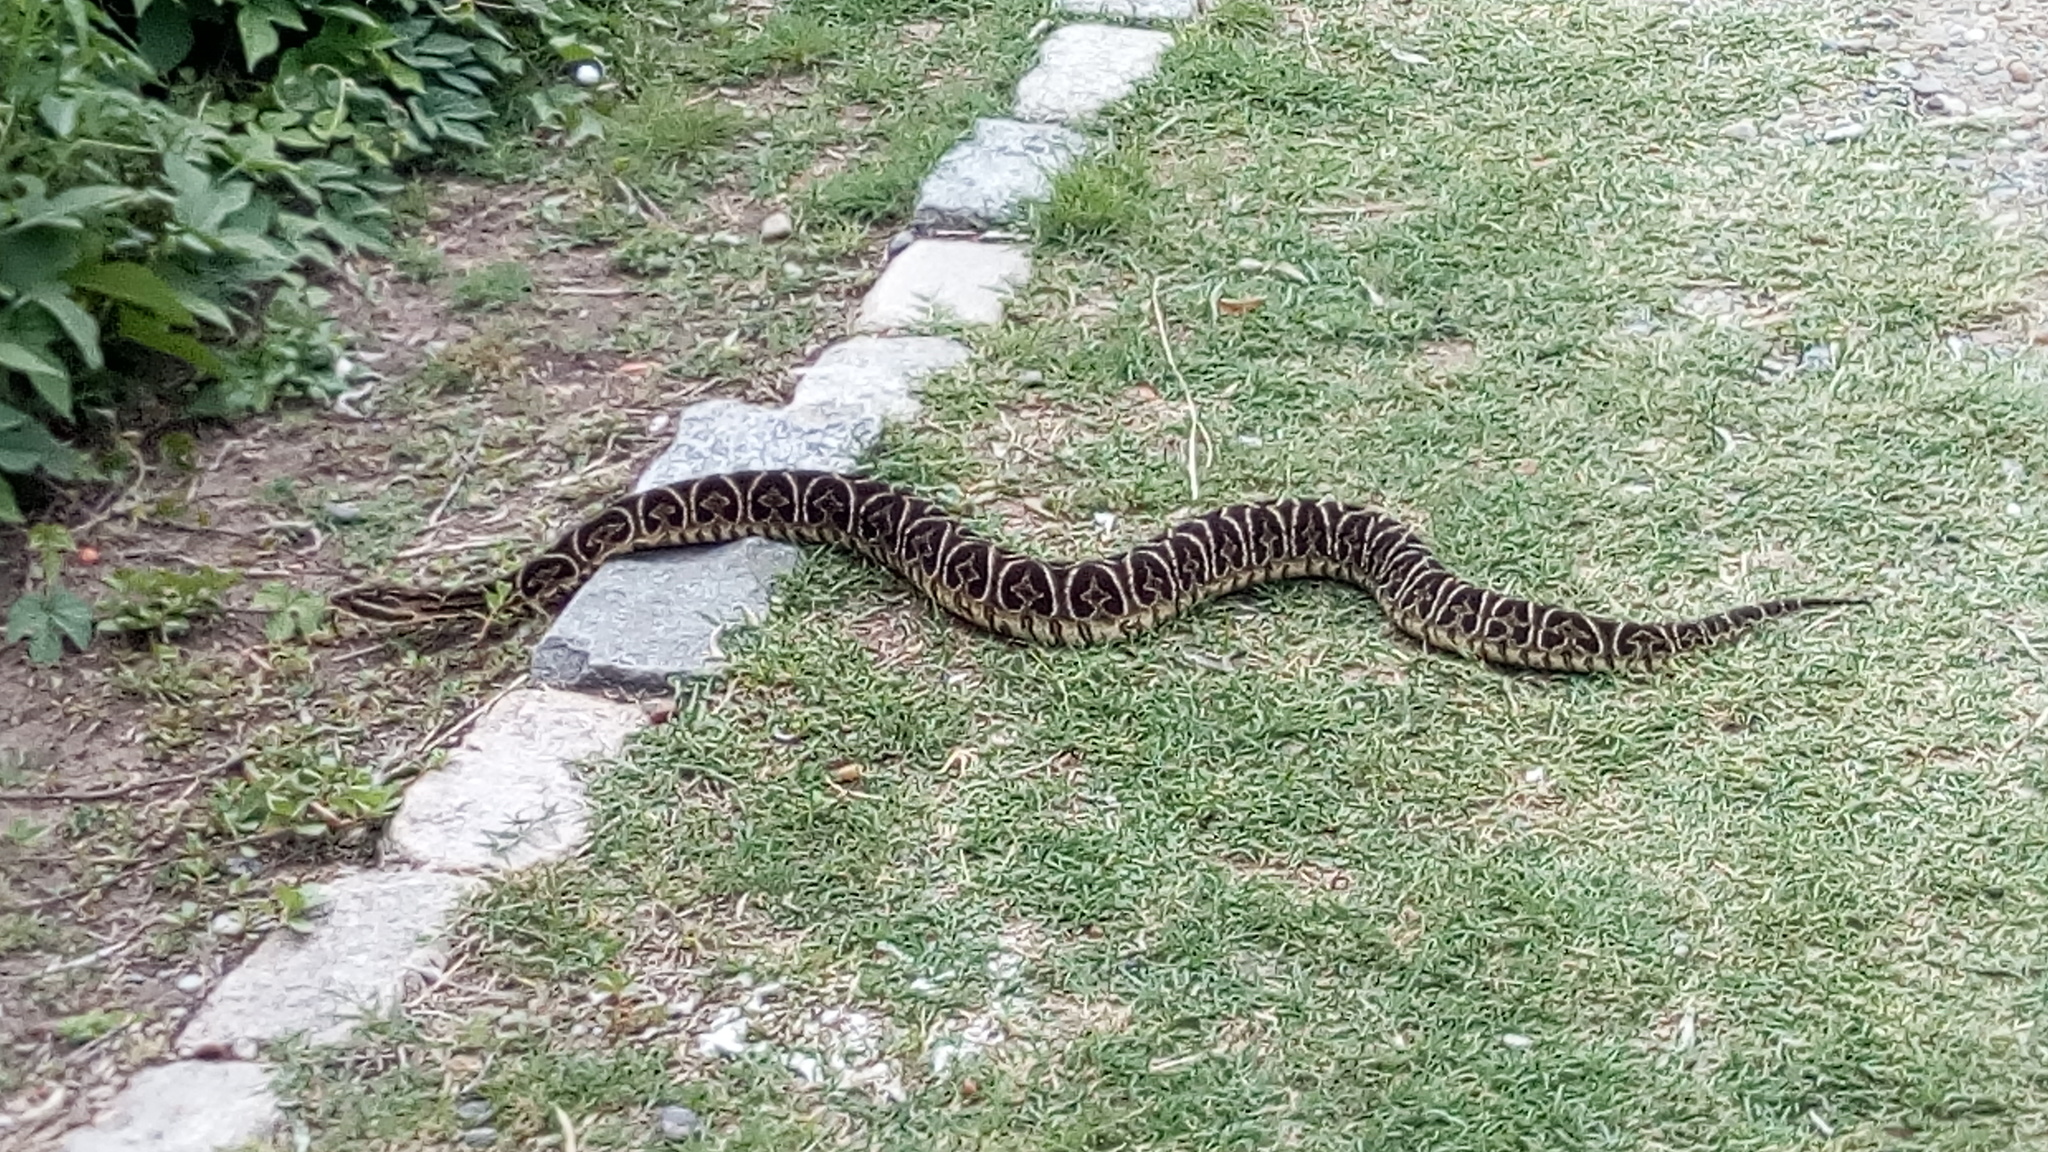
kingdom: Animalia
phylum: Chordata
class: Squamata
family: Viperidae
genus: Bothrops
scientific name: Bothrops alternatus
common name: Urutu
